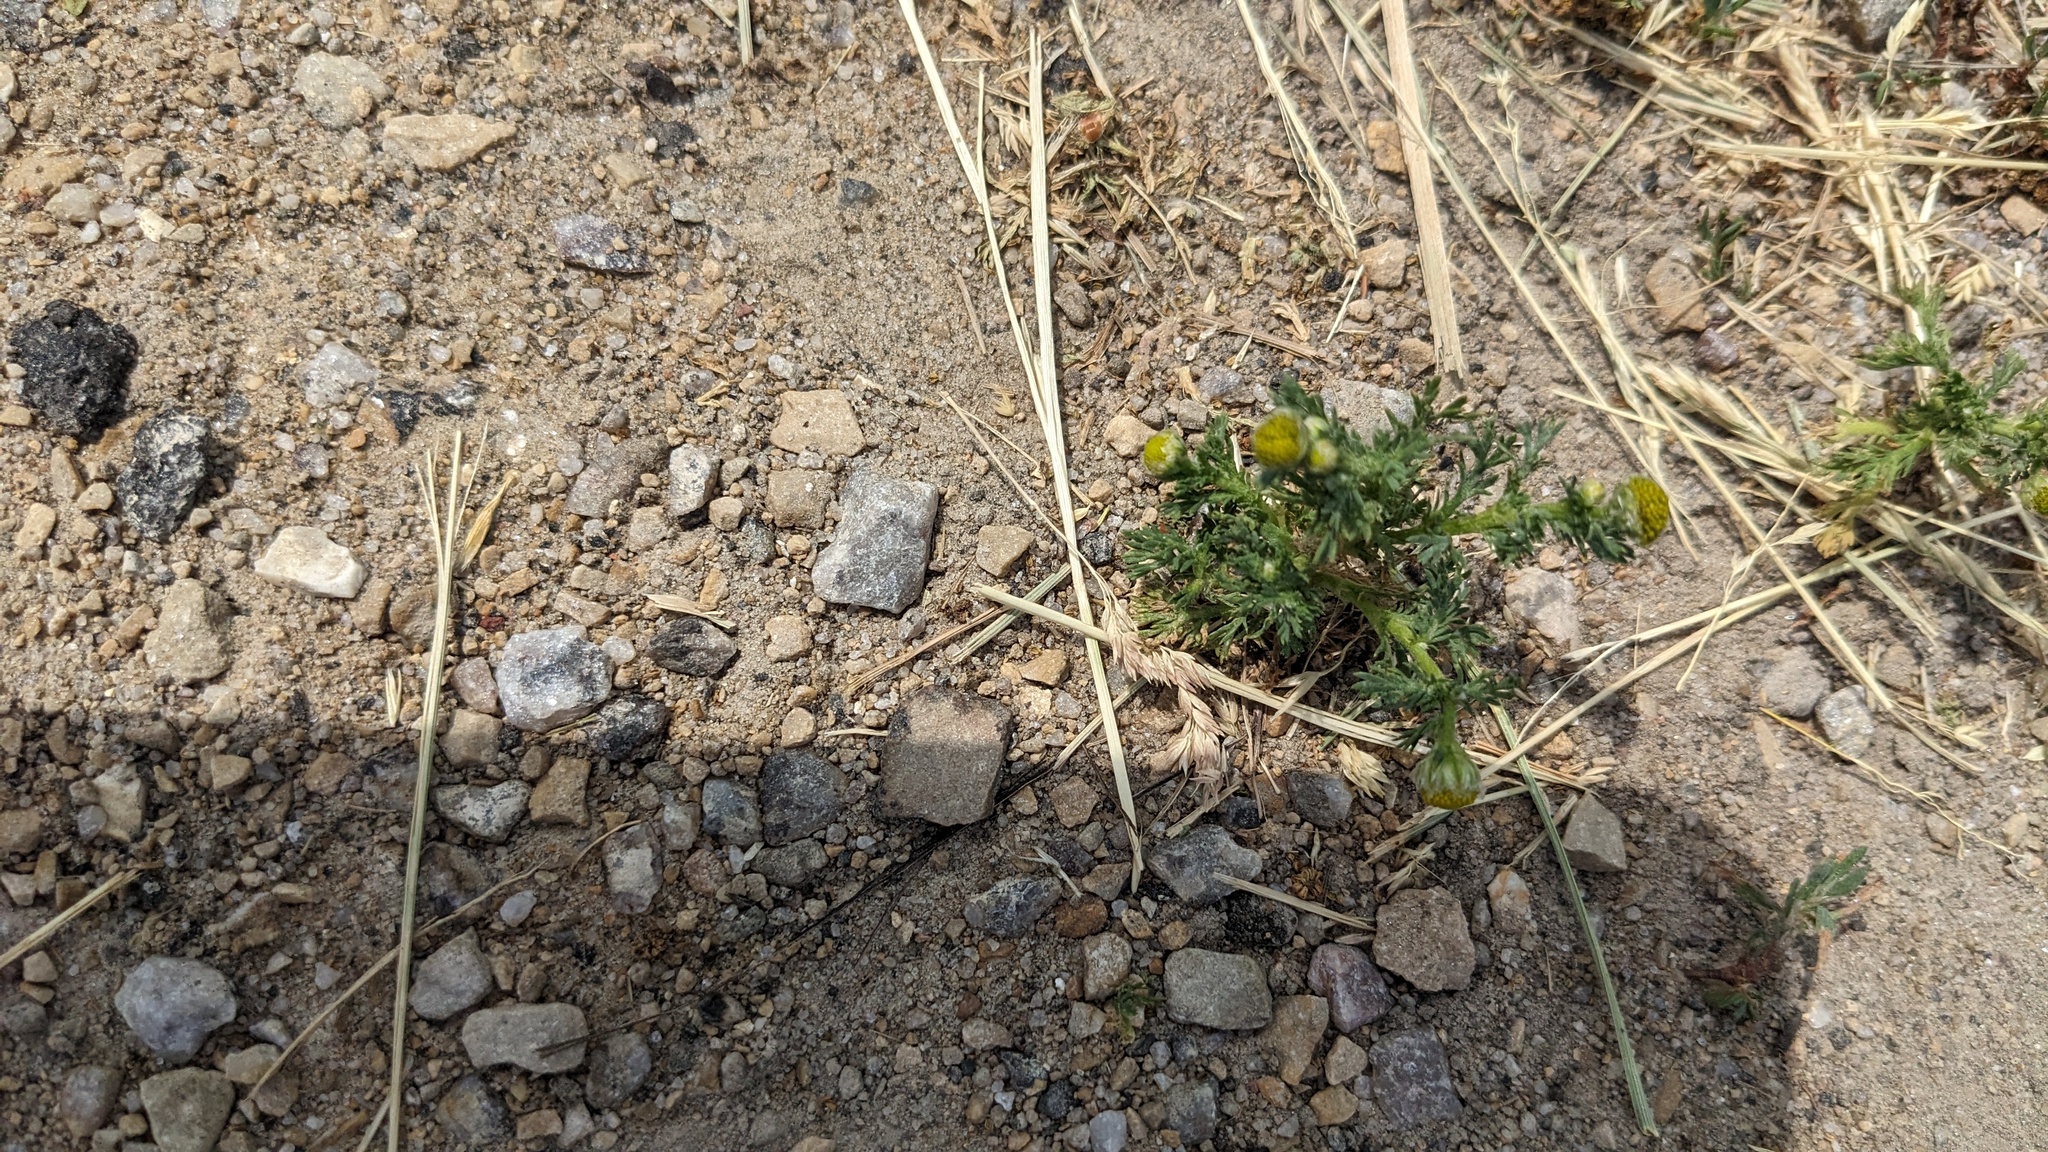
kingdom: Plantae
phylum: Tracheophyta
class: Magnoliopsida
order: Asterales
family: Asteraceae
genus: Matricaria
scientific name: Matricaria discoidea
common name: Disc mayweed
